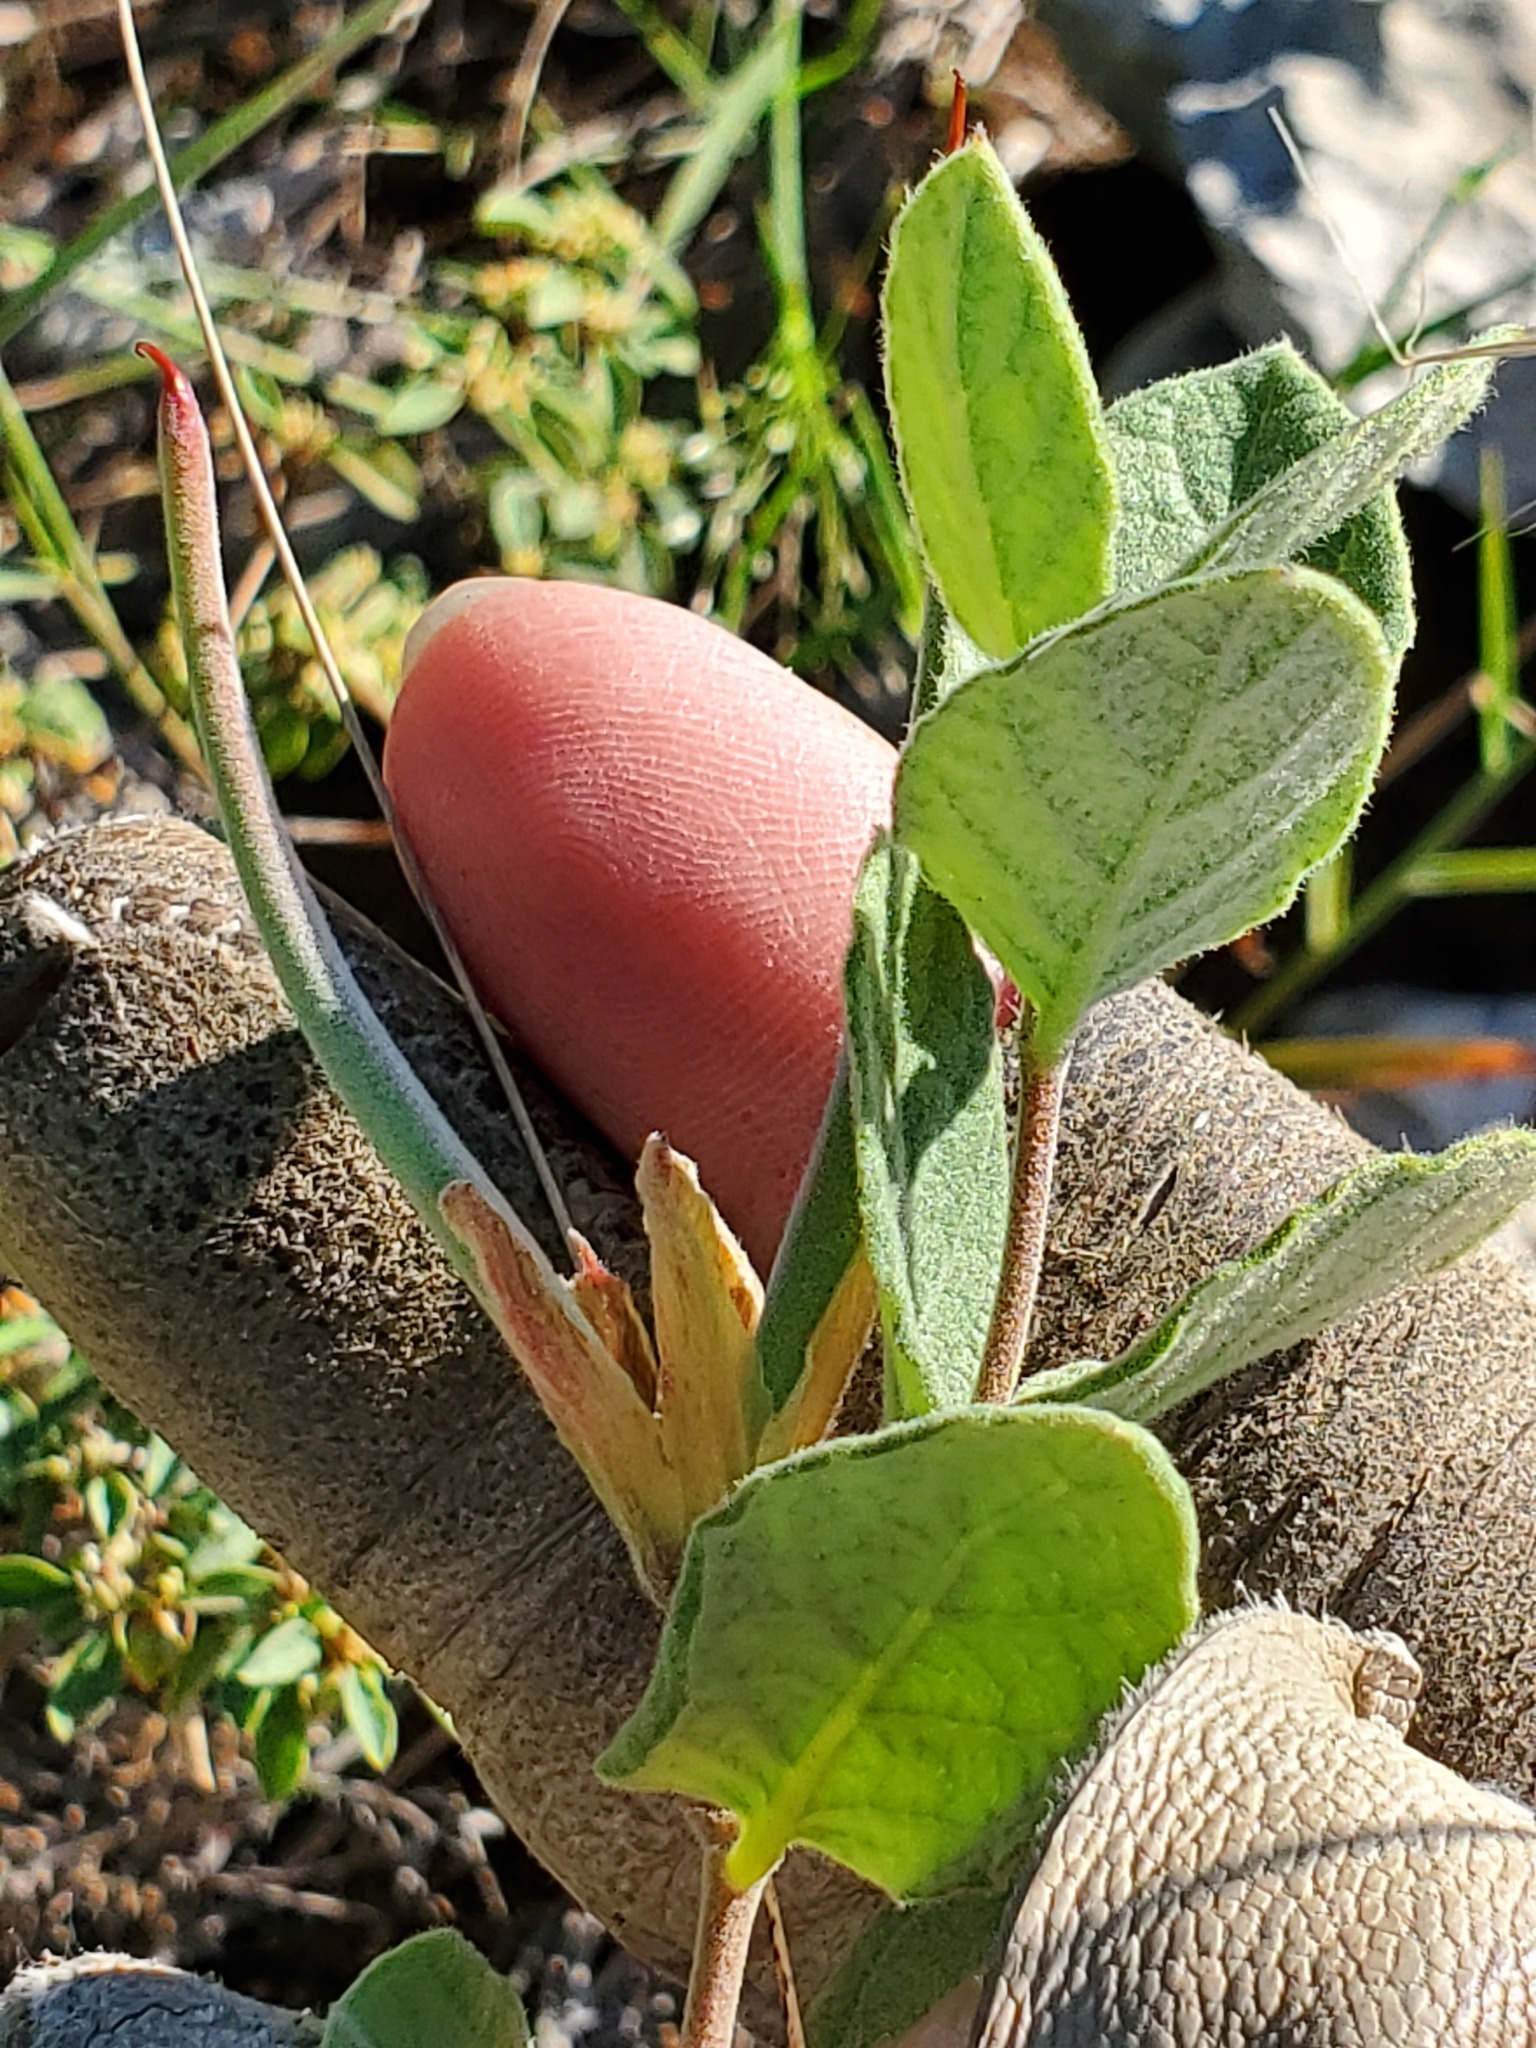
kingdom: Plantae
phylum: Tracheophyta
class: Magnoliopsida
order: Gentianales
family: Apocynaceae
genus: Mandevilla
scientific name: Mandevilla macrosiphon
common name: Plateau rocktrumpet
